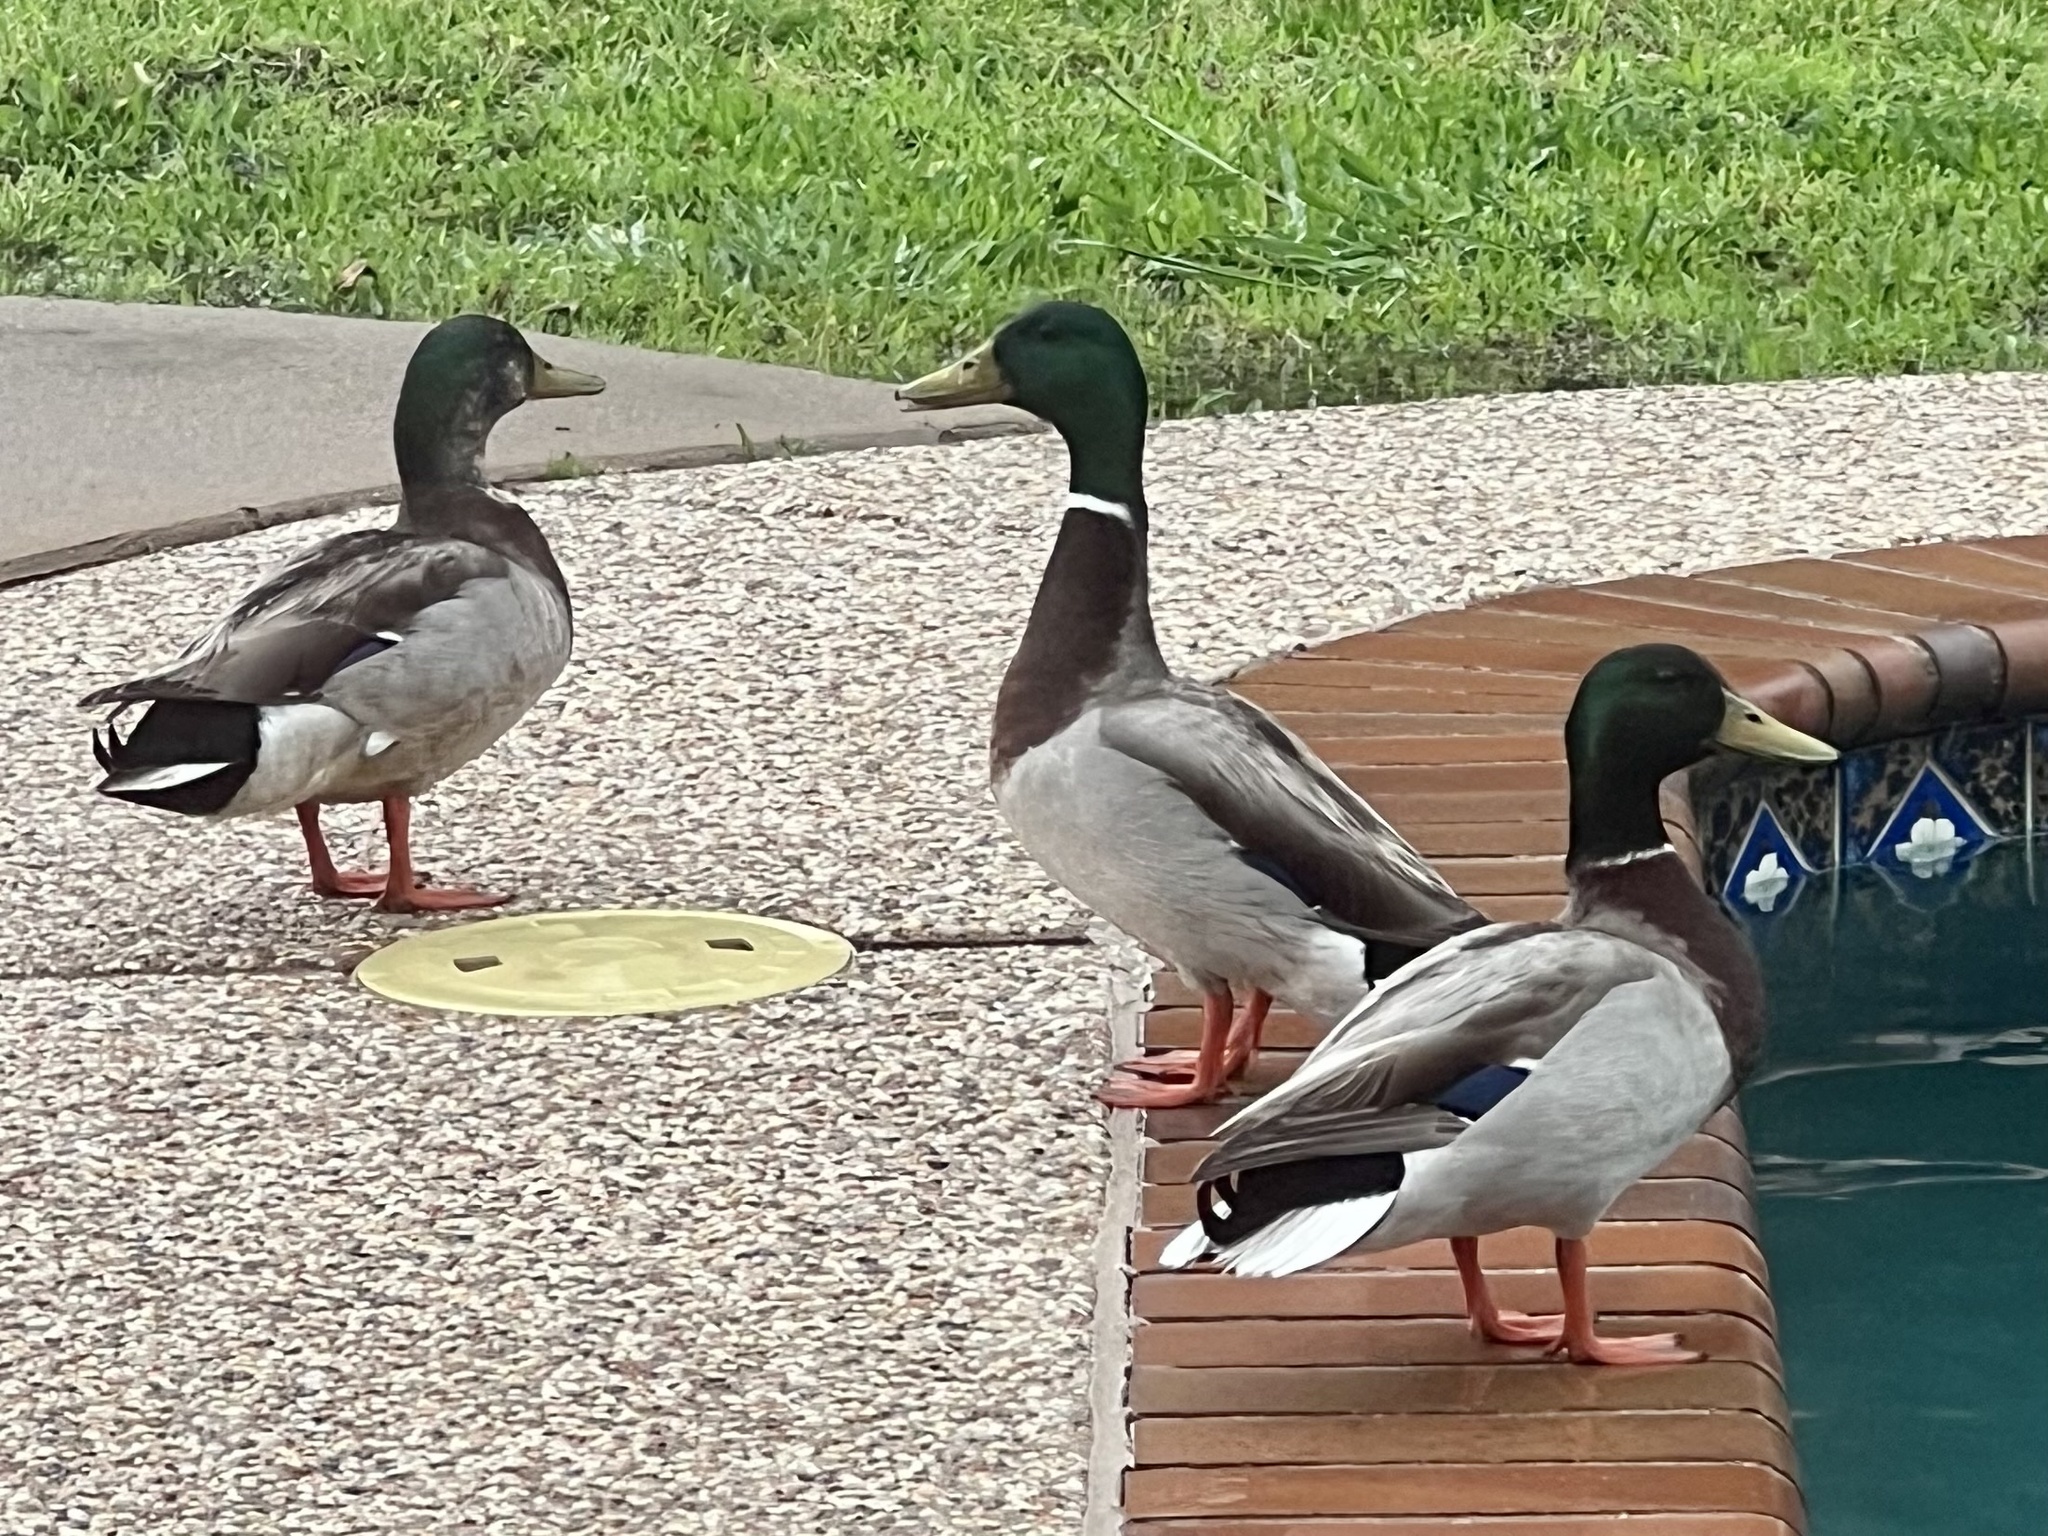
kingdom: Animalia
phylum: Chordata
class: Aves
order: Anseriformes
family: Anatidae
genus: Anas
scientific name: Anas platyrhynchos
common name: Mallard
